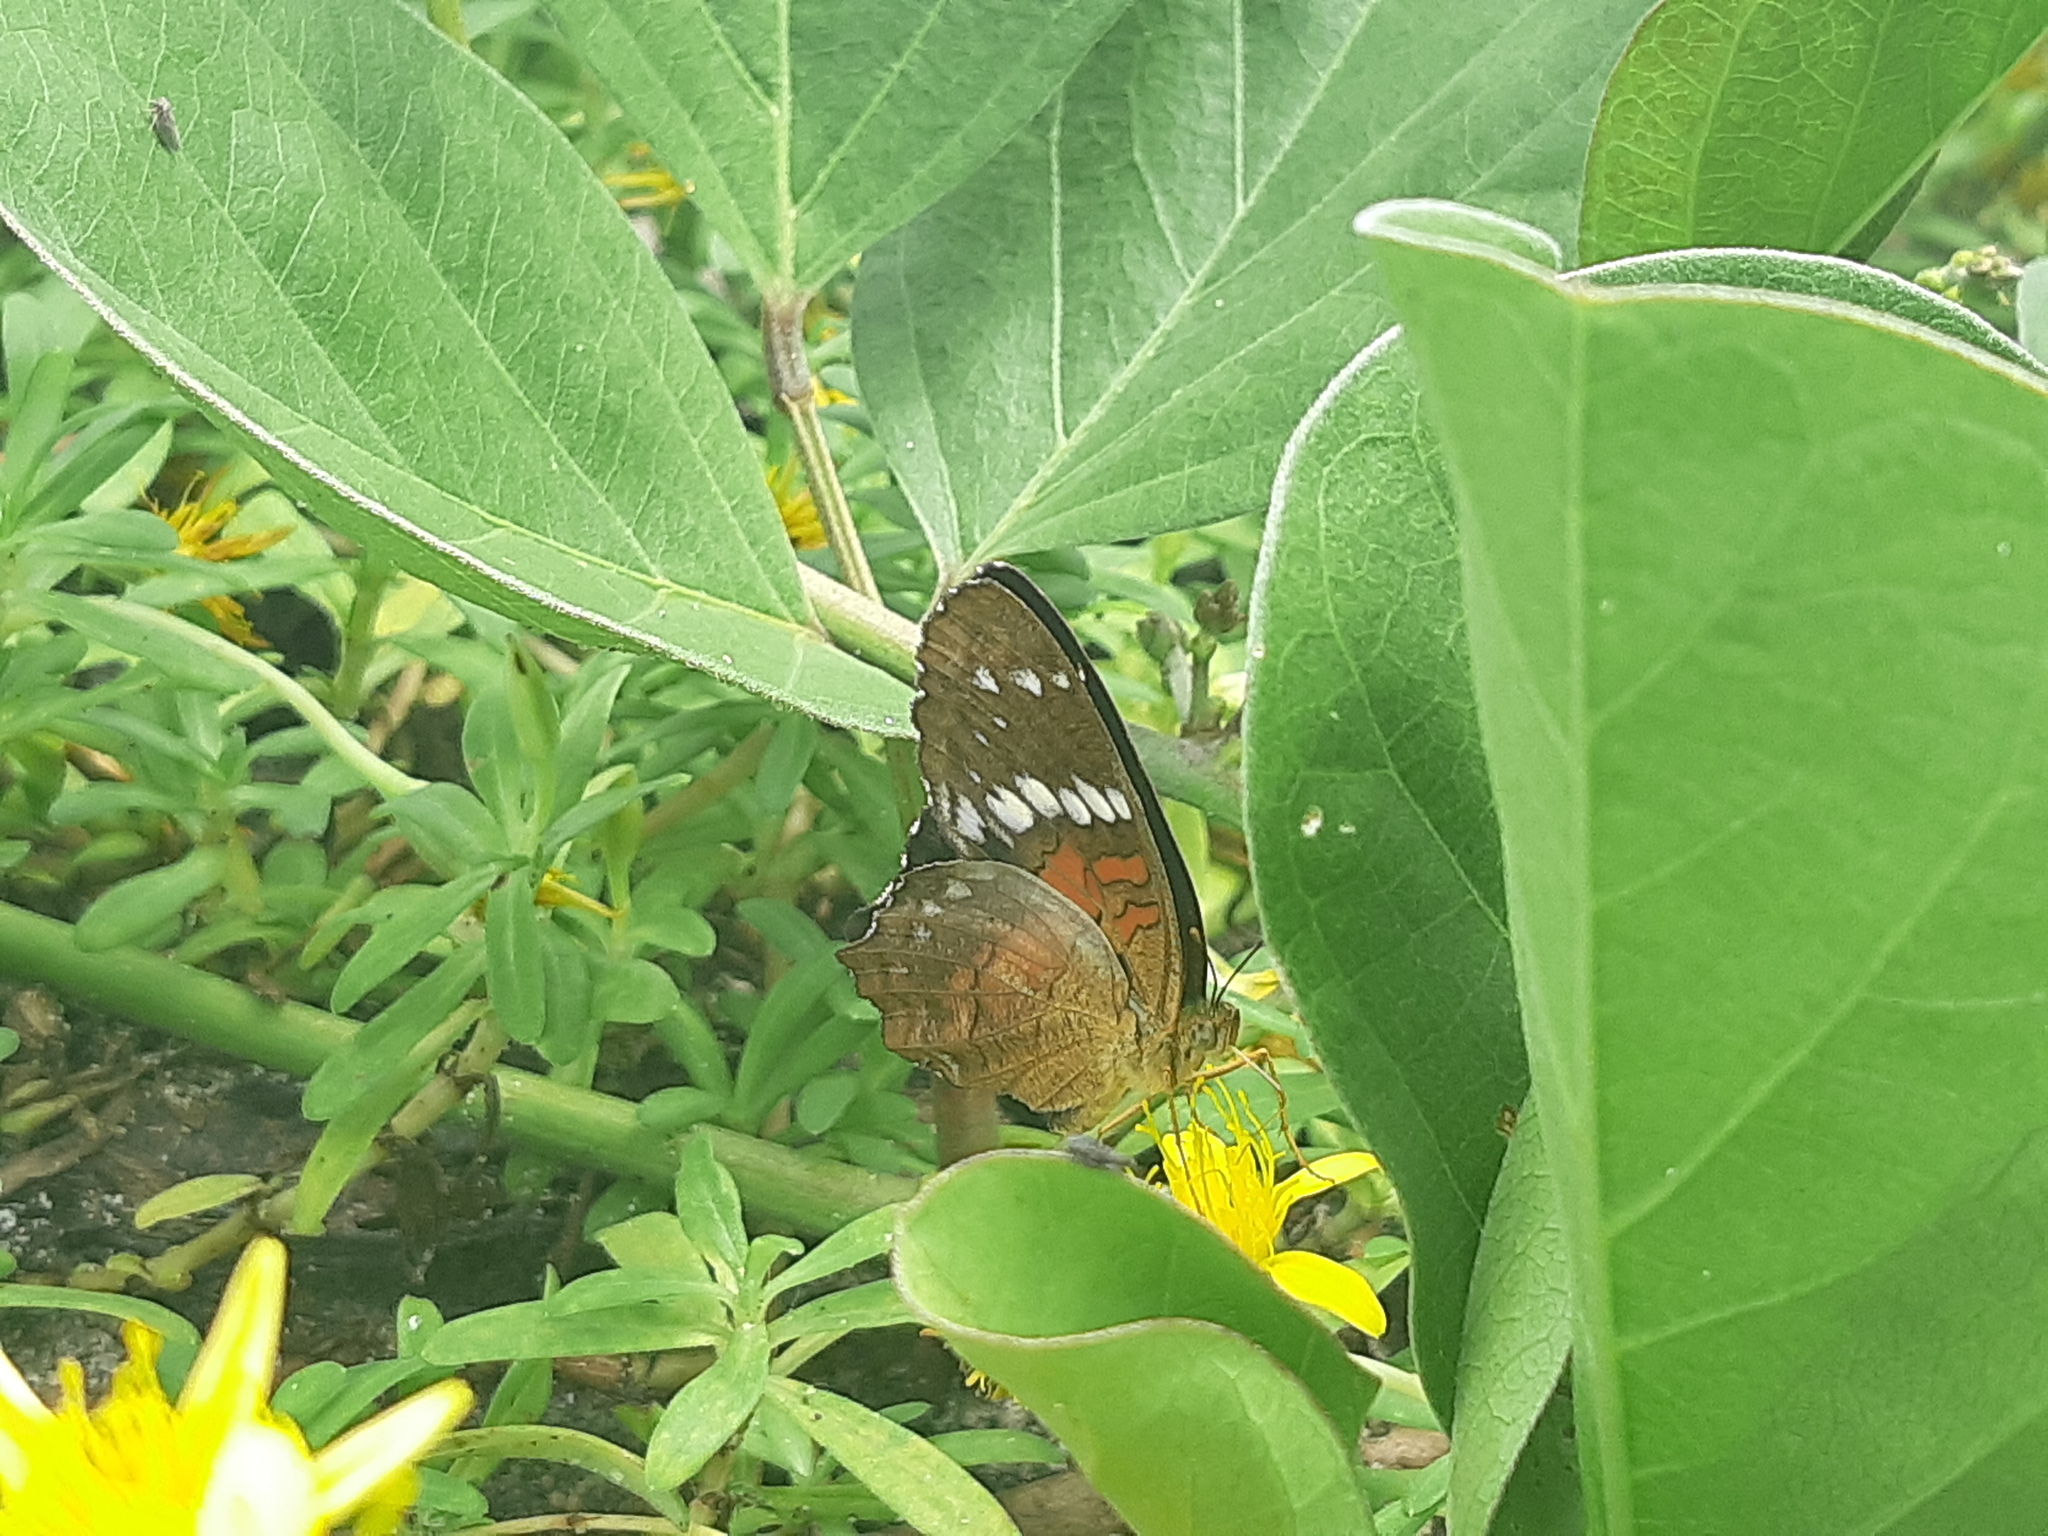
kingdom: Animalia
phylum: Arthropoda
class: Insecta
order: Lepidoptera
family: Nymphalidae
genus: Anartia
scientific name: Anartia amathea
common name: Red peacock
